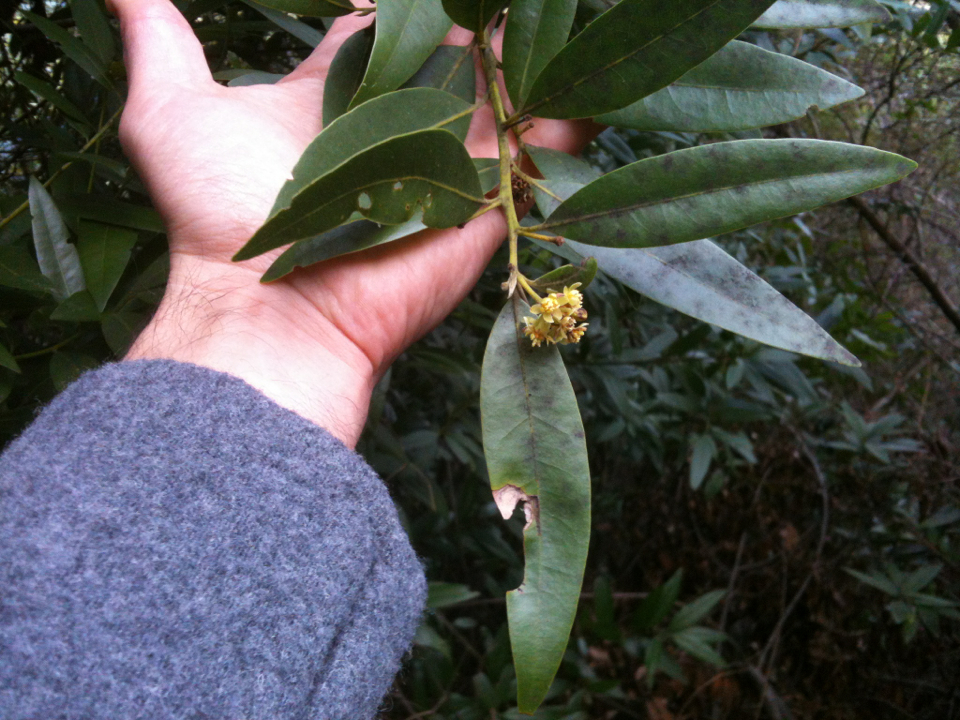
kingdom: Plantae
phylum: Tracheophyta
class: Magnoliopsida
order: Laurales
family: Lauraceae
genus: Umbellularia
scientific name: Umbellularia californica
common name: California bay
